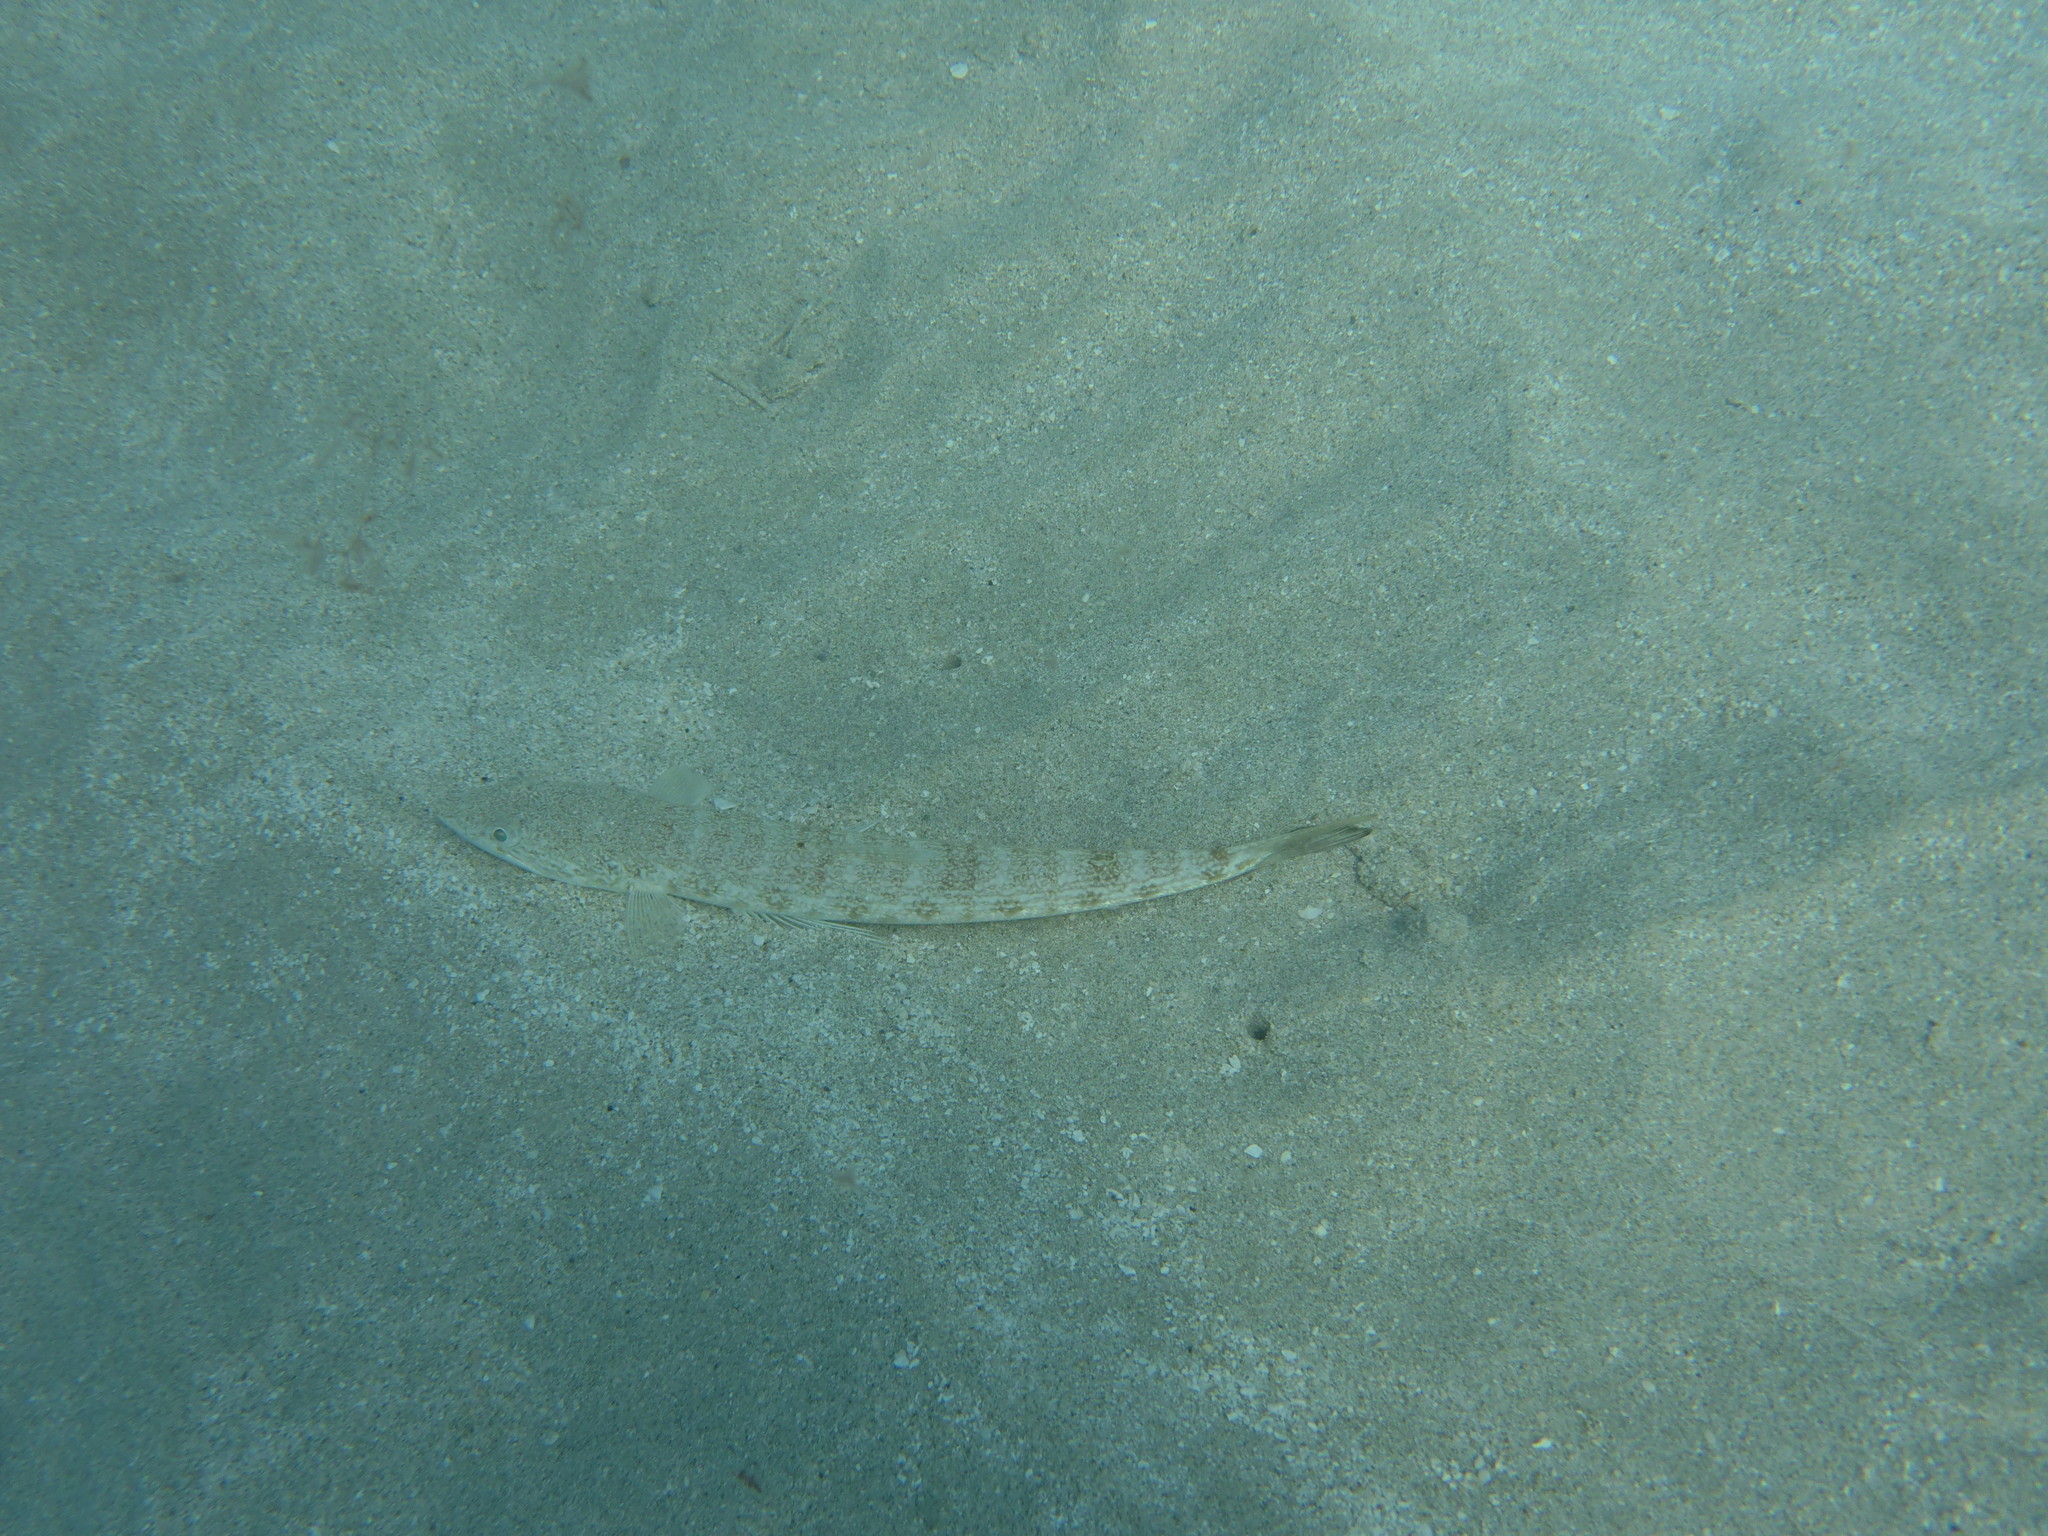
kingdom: Animalia
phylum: Chordata
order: Aulopiformes
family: Synodontidae
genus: Synodus
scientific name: Synodus intermedius
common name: Sand diver
